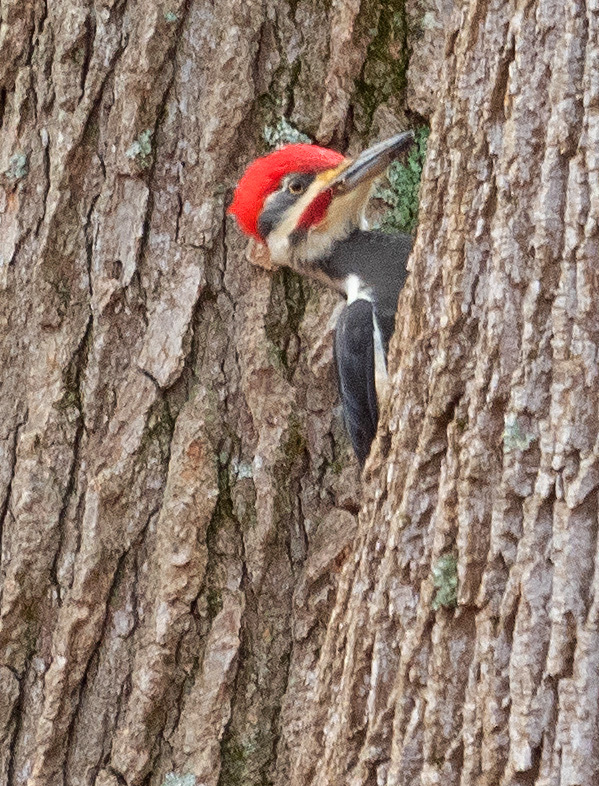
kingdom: Animalia
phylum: Chordata
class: Aves
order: Piciformes
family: Picidae
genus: Dryocopus
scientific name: Dryocopus pileatus
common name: Pileated woodpecker
